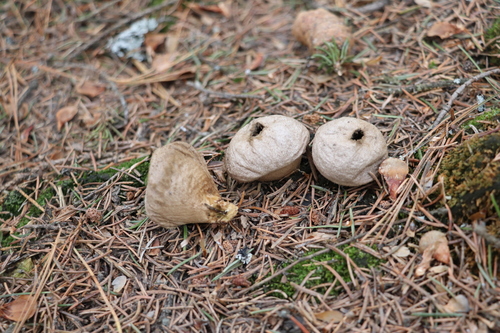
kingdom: Fungi
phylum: Basidiomycota
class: Agaricomycetes
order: Agaricales
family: Lycoperdaceae
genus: Lycoperdon
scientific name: Lycoperdon perlatum
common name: Common puffball
